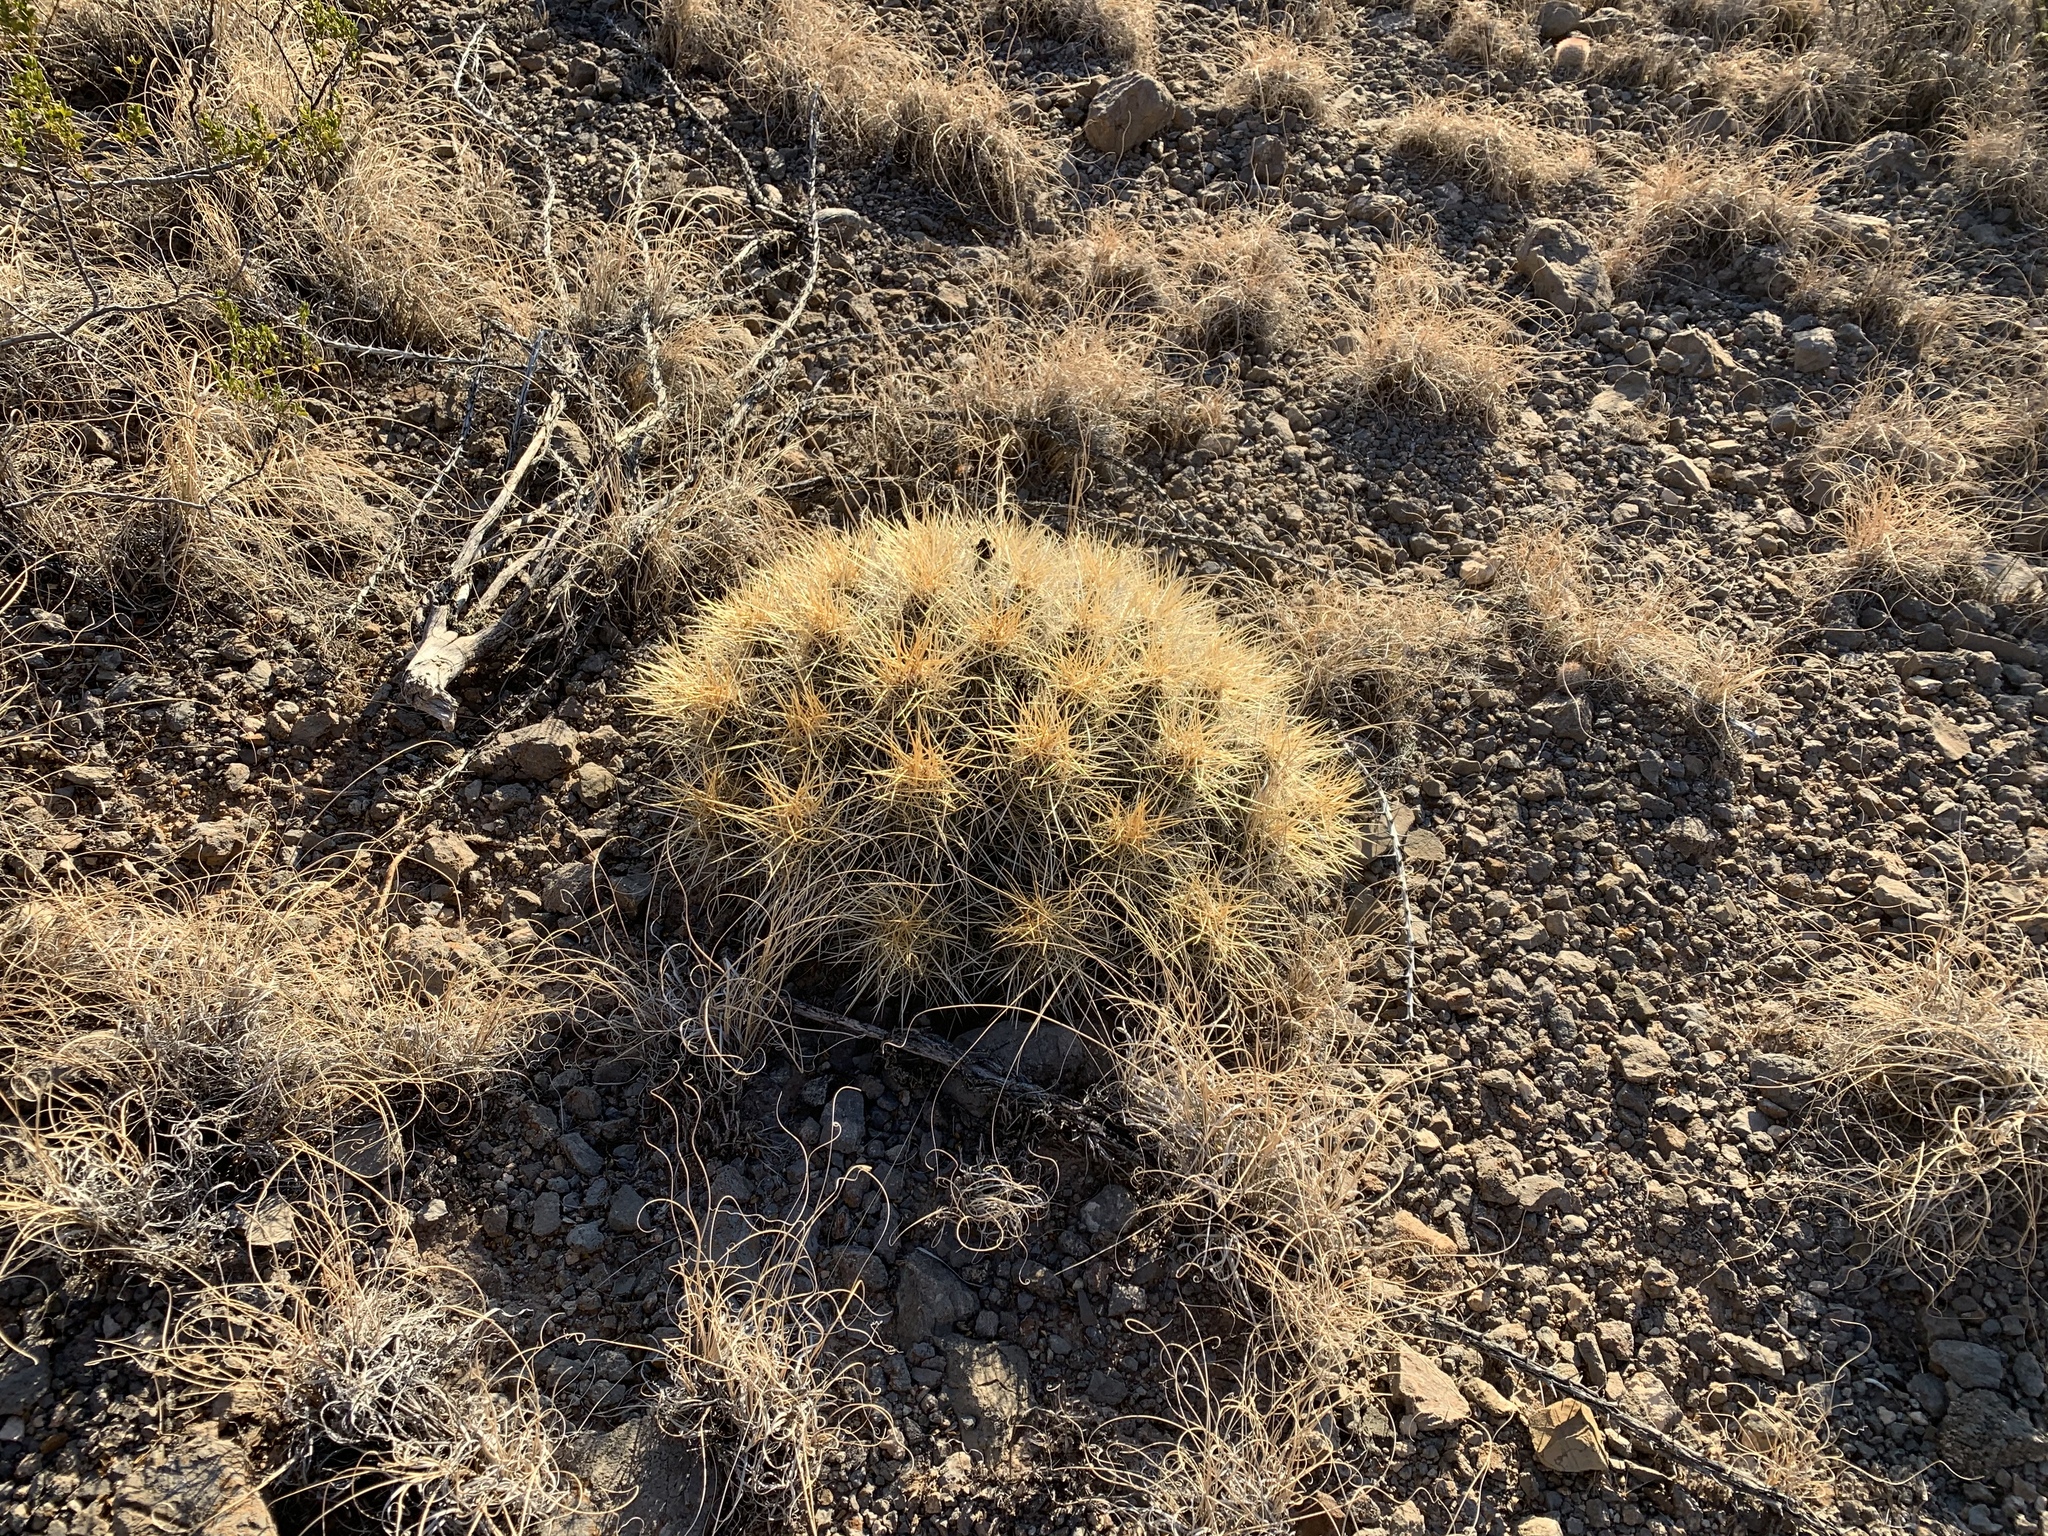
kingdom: Plantae
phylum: Tracheophyta
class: Magnoliopsida
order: Caryophyllales
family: Cactaceae
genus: Echinocereus
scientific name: Echinocereus stramineus
